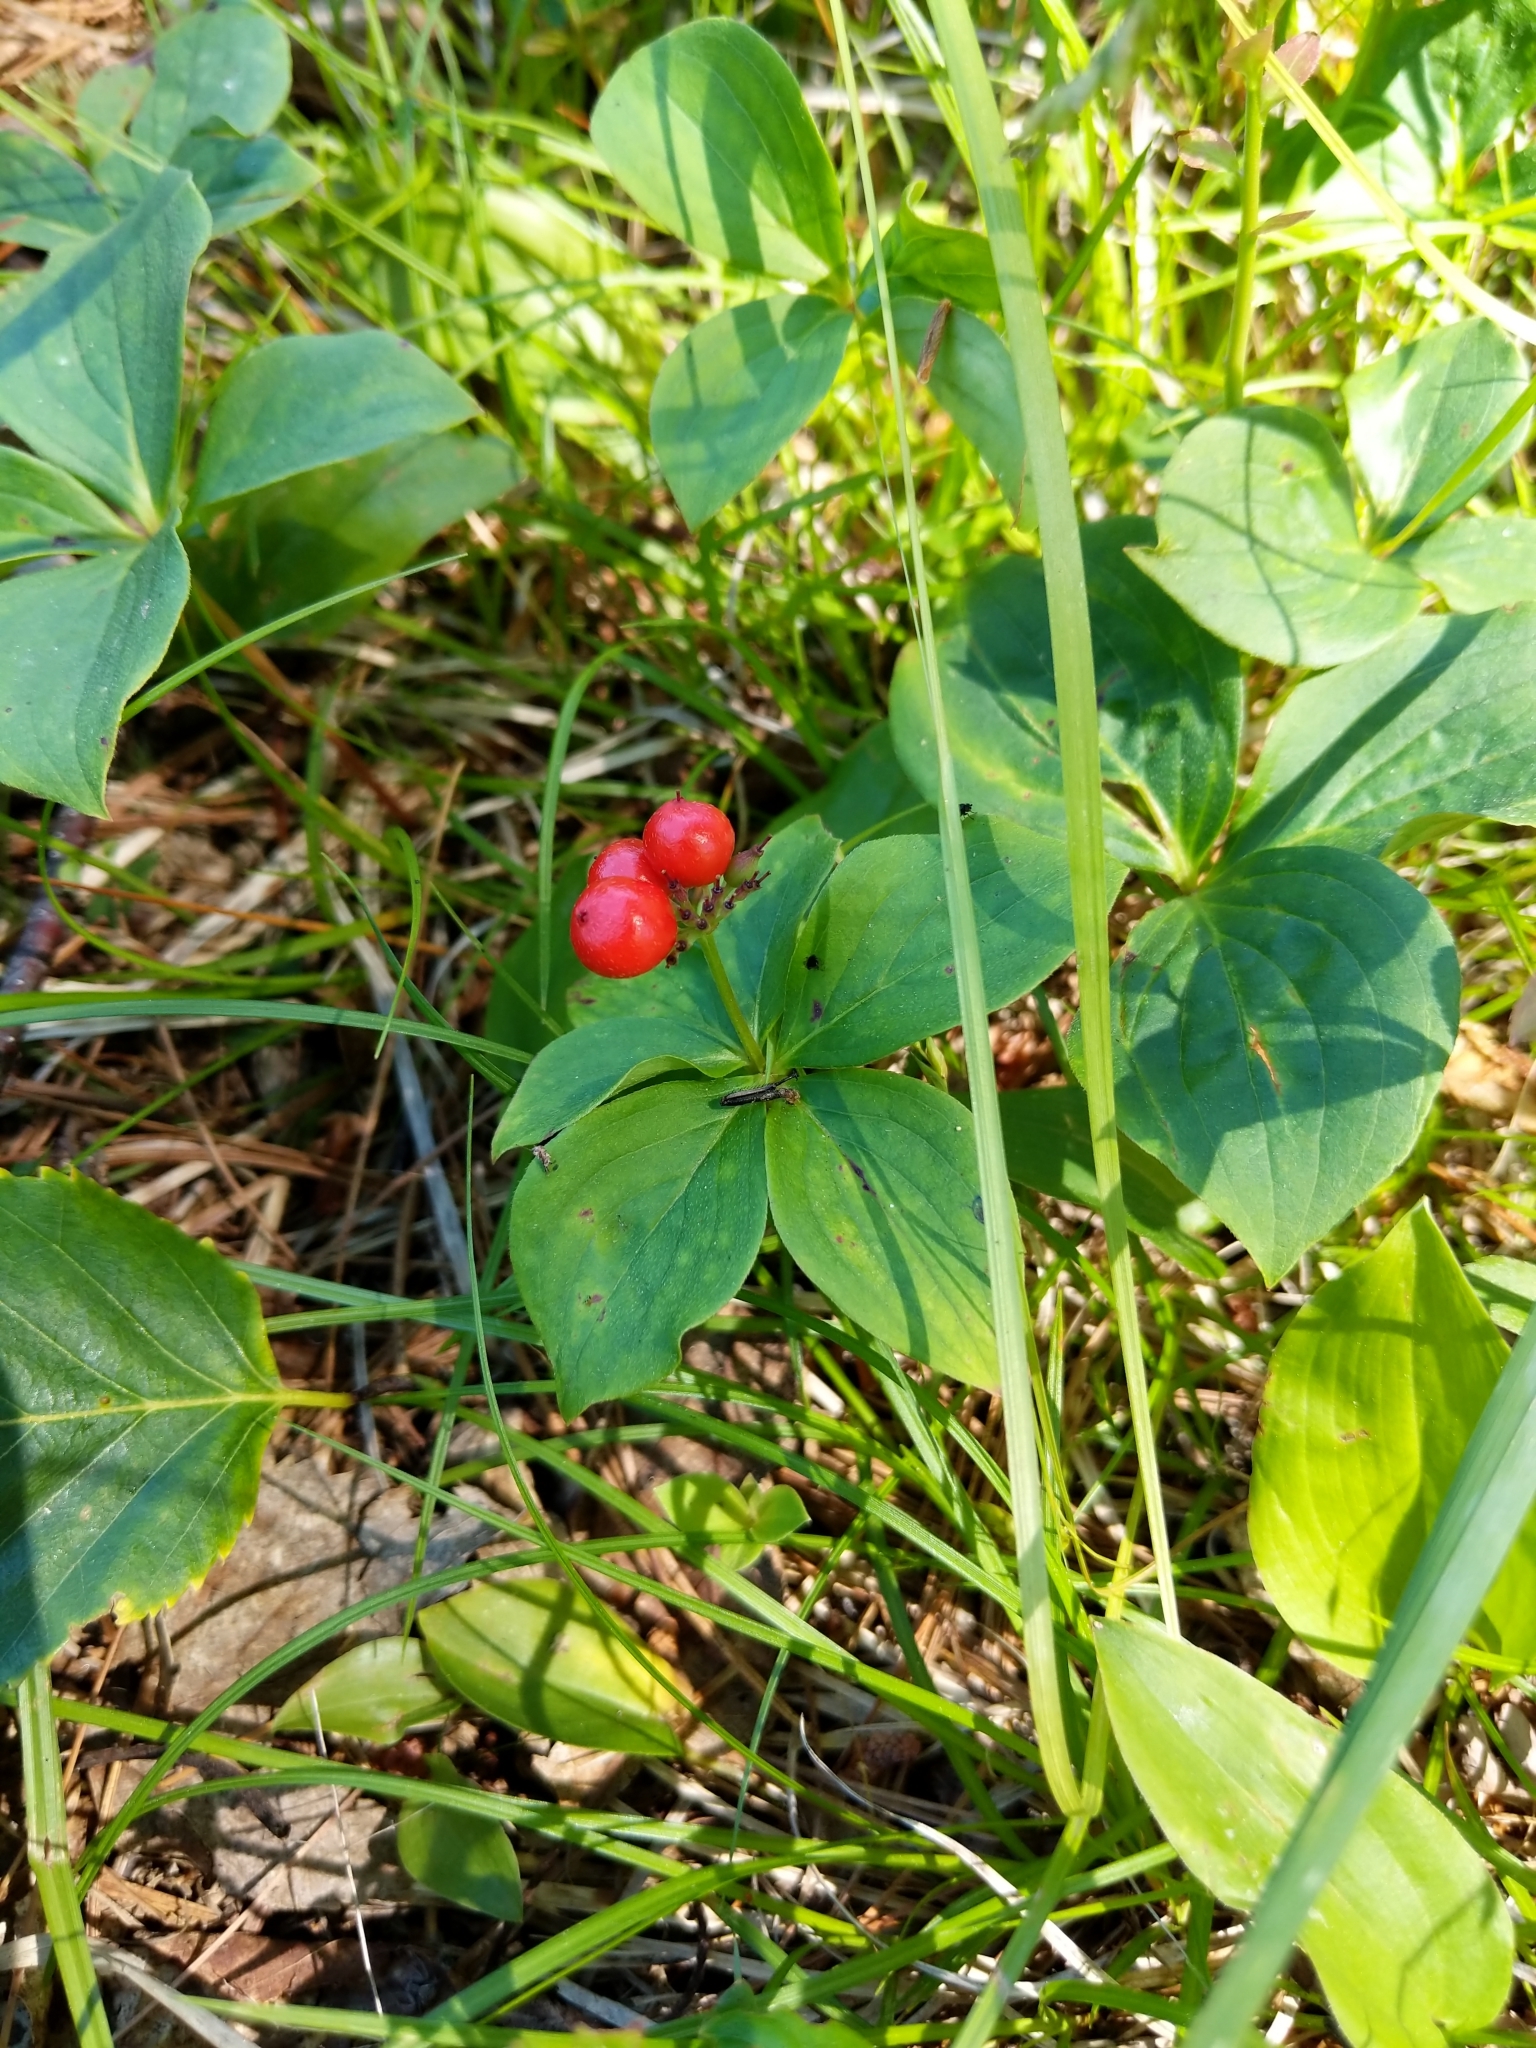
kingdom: Plantae
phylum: Tracheophyta
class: Magnoliopsida
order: Cornales
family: Cornaceae
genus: Cornus
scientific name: Cornus canadensis
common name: Creeping dogwood
